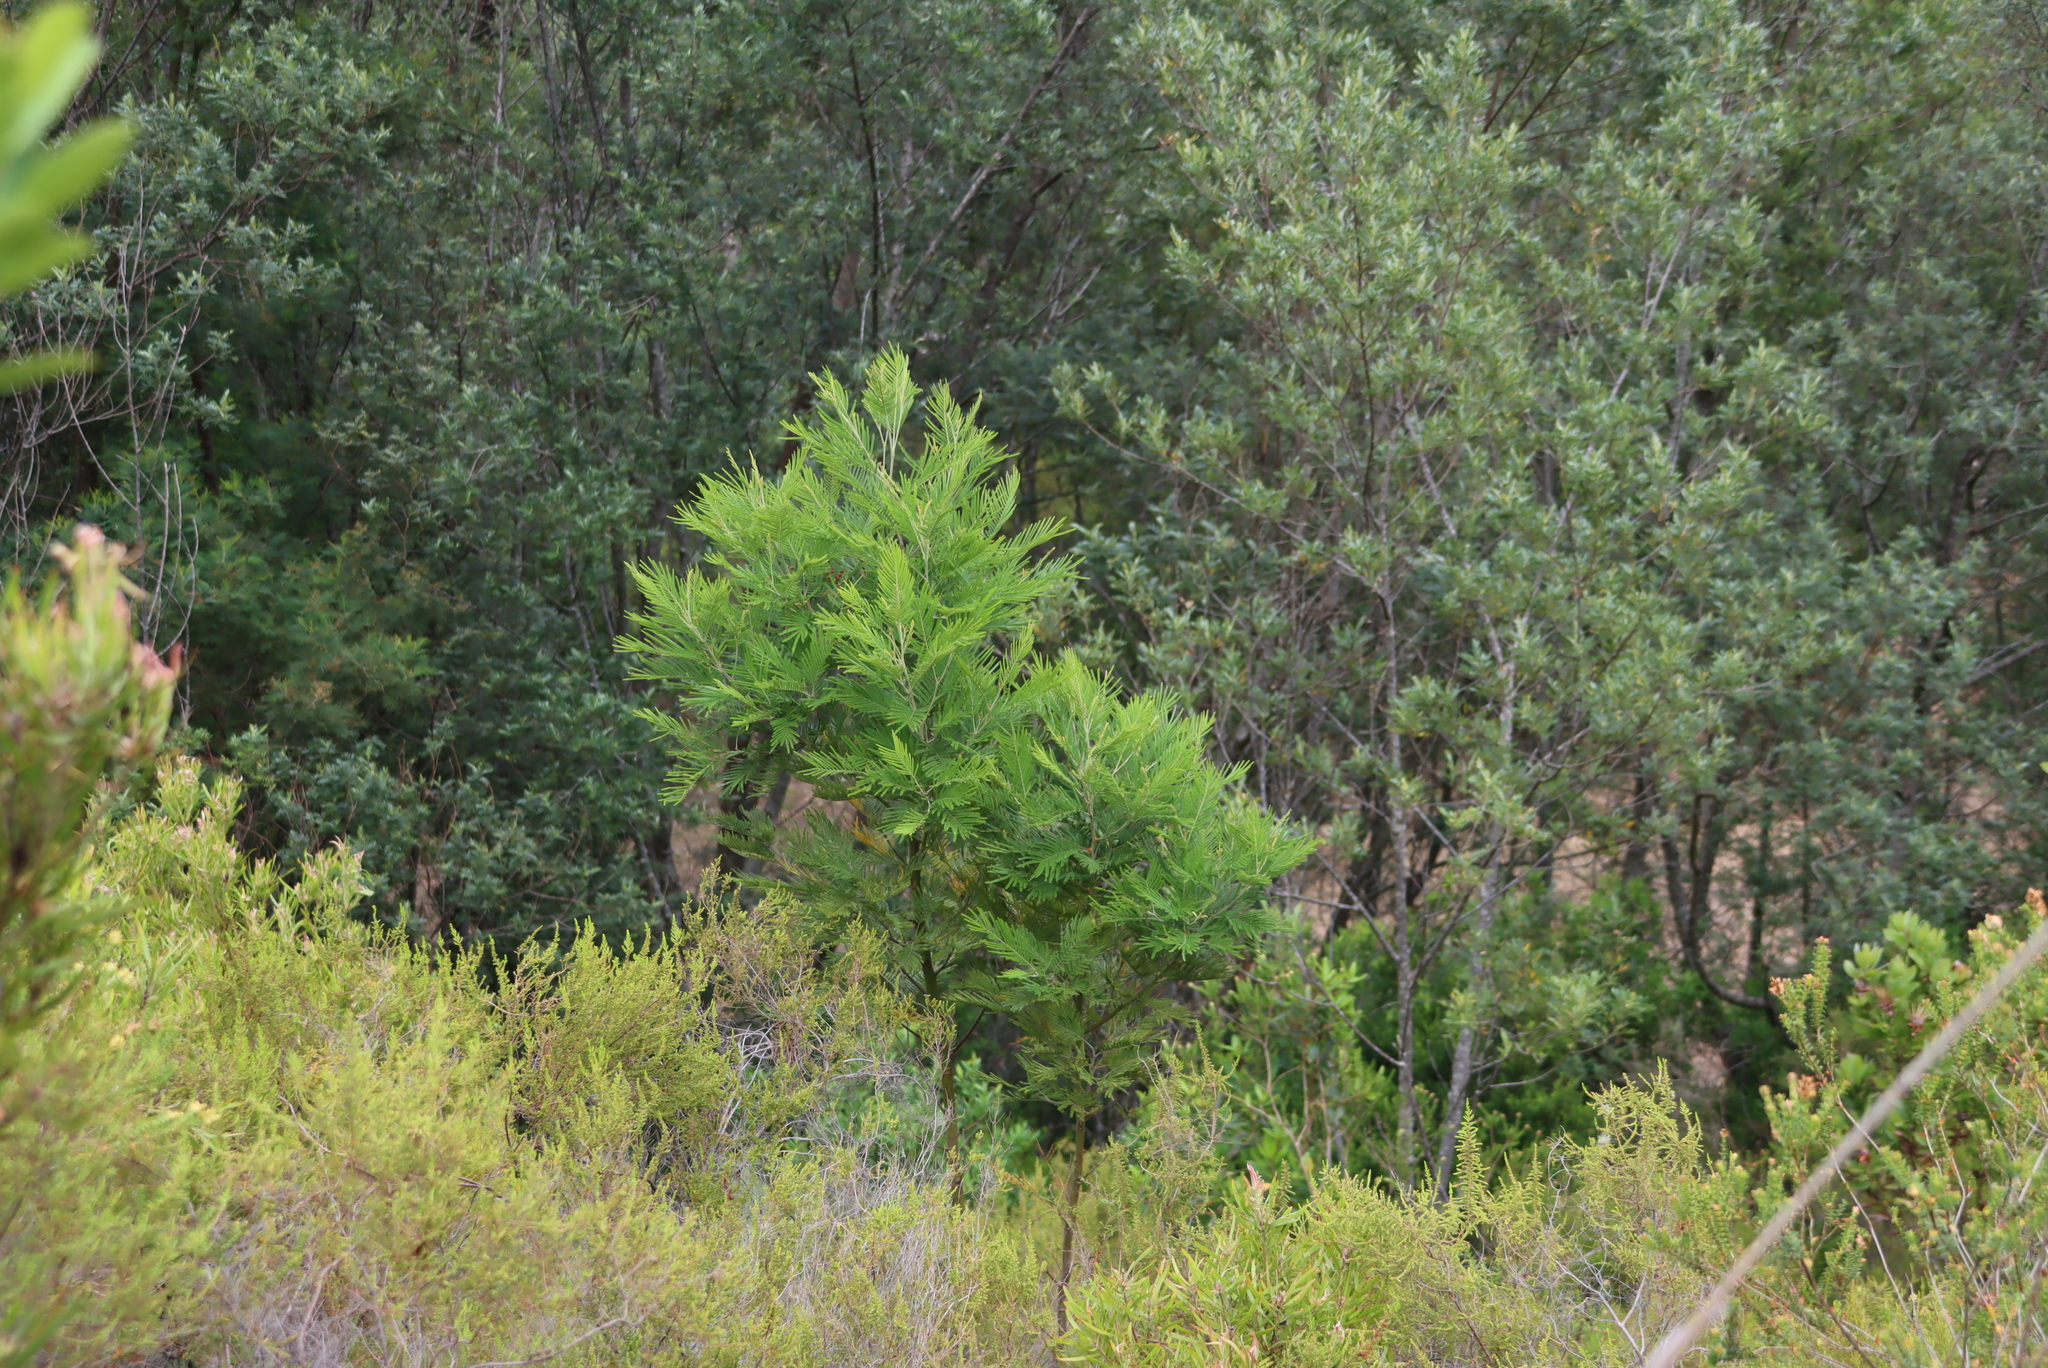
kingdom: Plantae
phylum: Tracheophyta
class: Magnoliopsida
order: Fabales
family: Fabaceae
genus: Acacia
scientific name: Acacia mearnsii
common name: Black wattle
